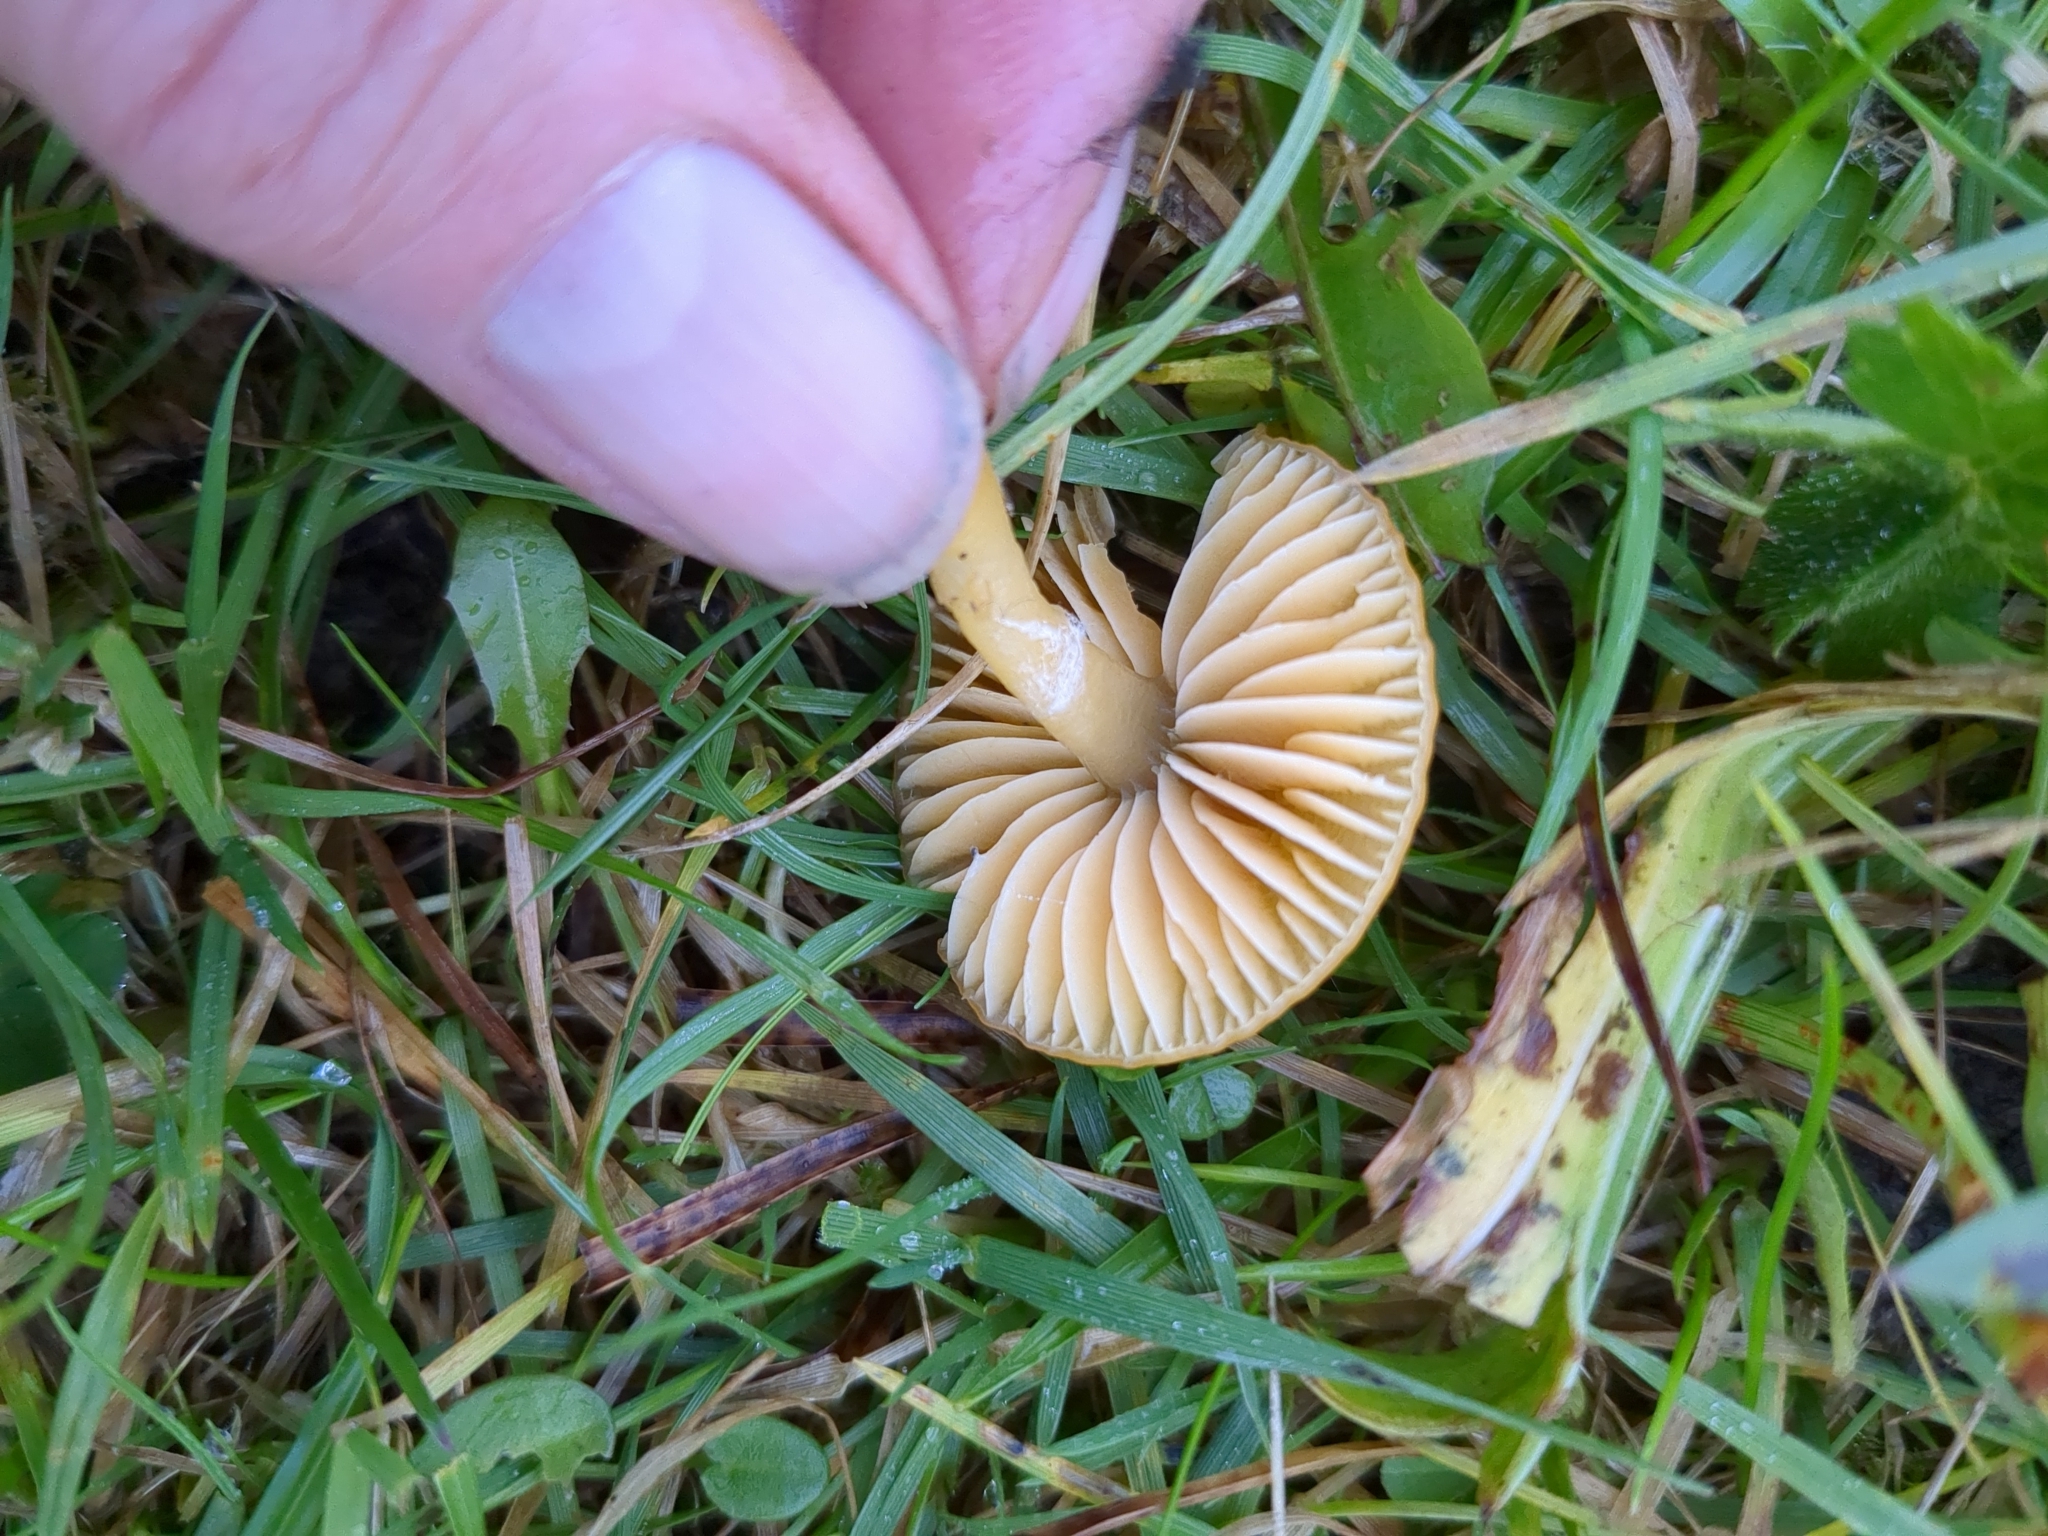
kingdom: Fungi
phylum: Basidiomycota
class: Agaricomycetes
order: Agaricales
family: Hygrophoraceae
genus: Gliophorus
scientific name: Gliophorus psittacinus
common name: Parrot wax-cap
